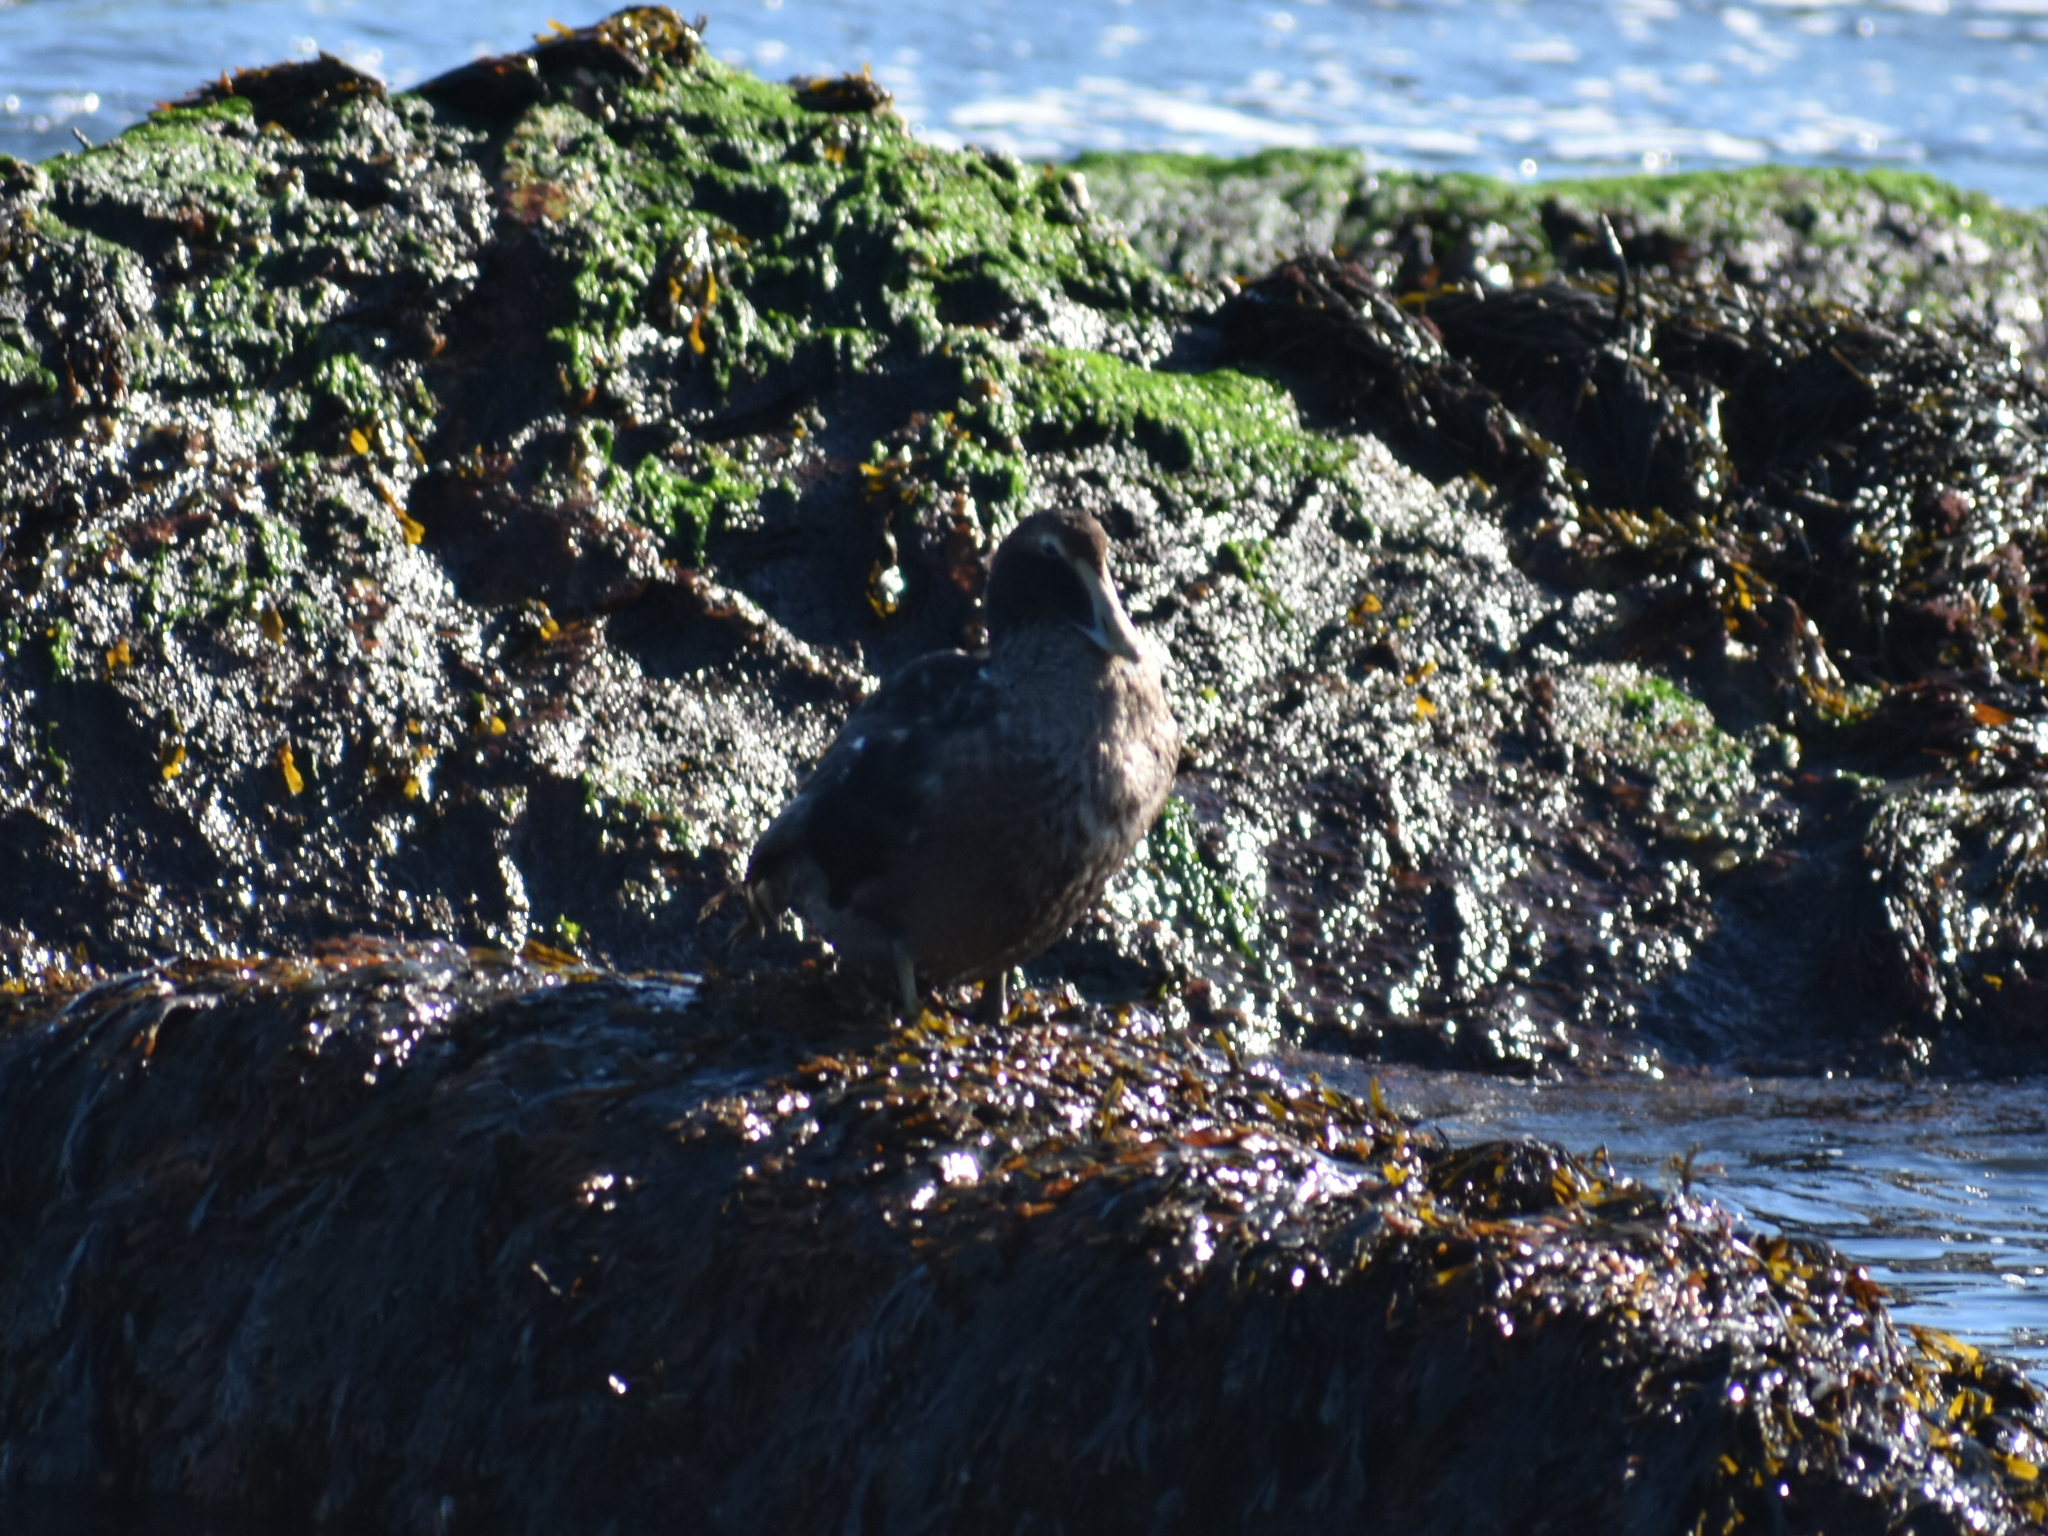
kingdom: Animalia
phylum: Chordata
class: Aves
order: Anseriformes
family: Anatidae
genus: Somateria
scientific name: Somateria mollissima
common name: Common eider
